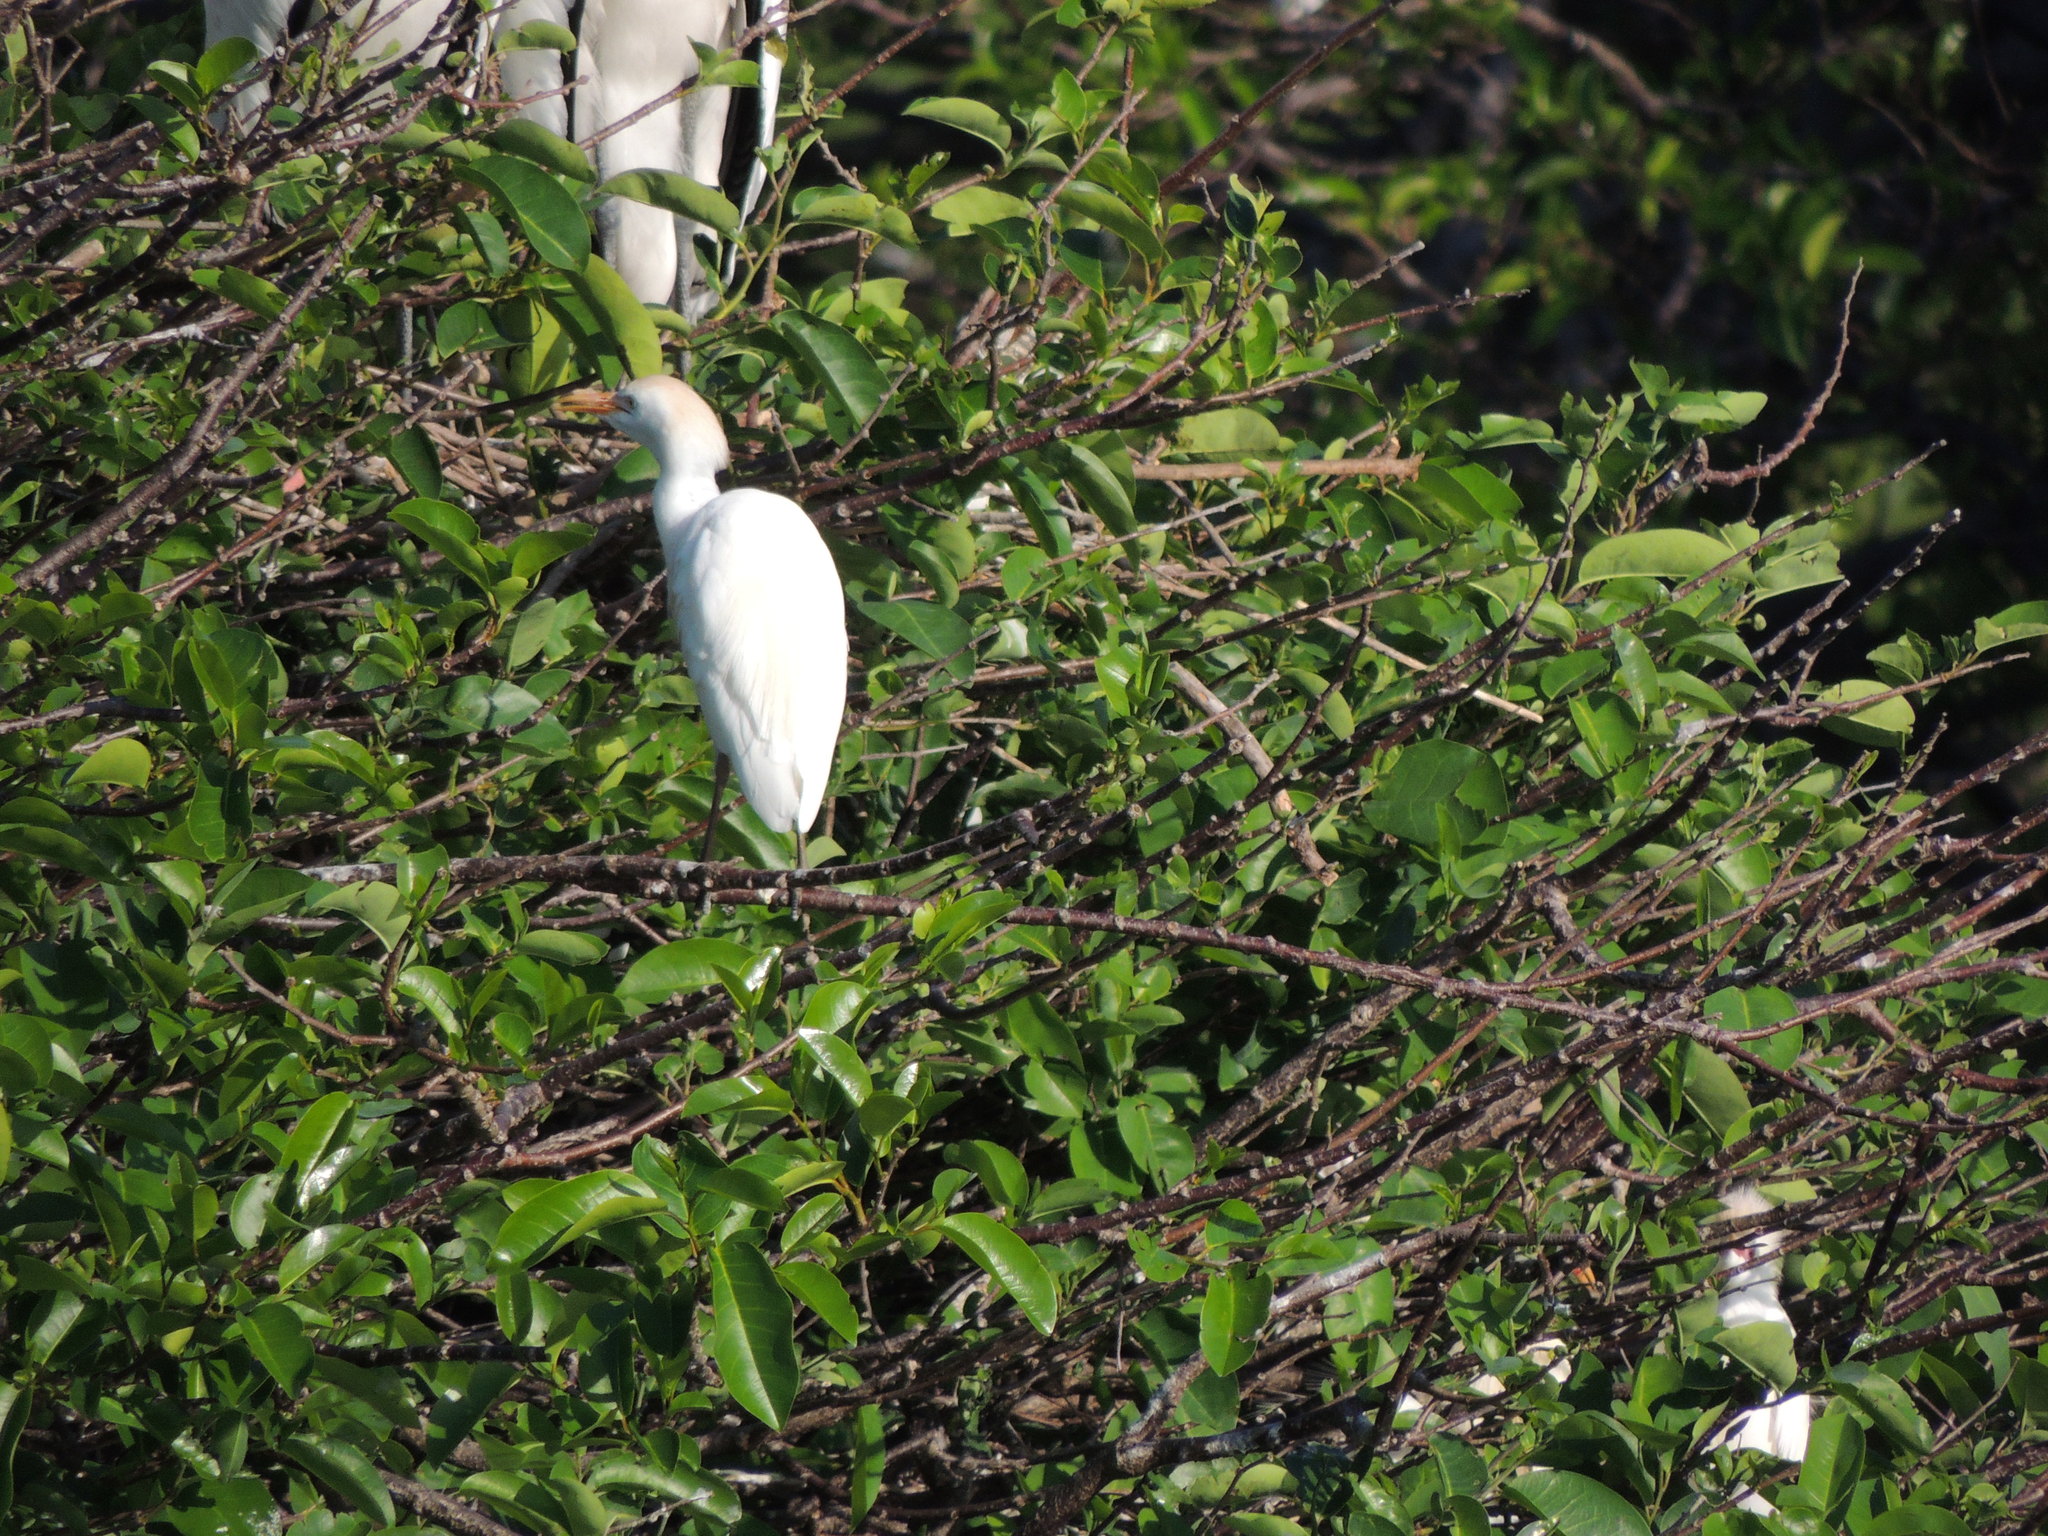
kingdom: Animalia
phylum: Chordata
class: Aves
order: Pelecaniformes
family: Ardeidae
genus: Bubulcus
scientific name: Bubulcus ibis
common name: Cattle egret
